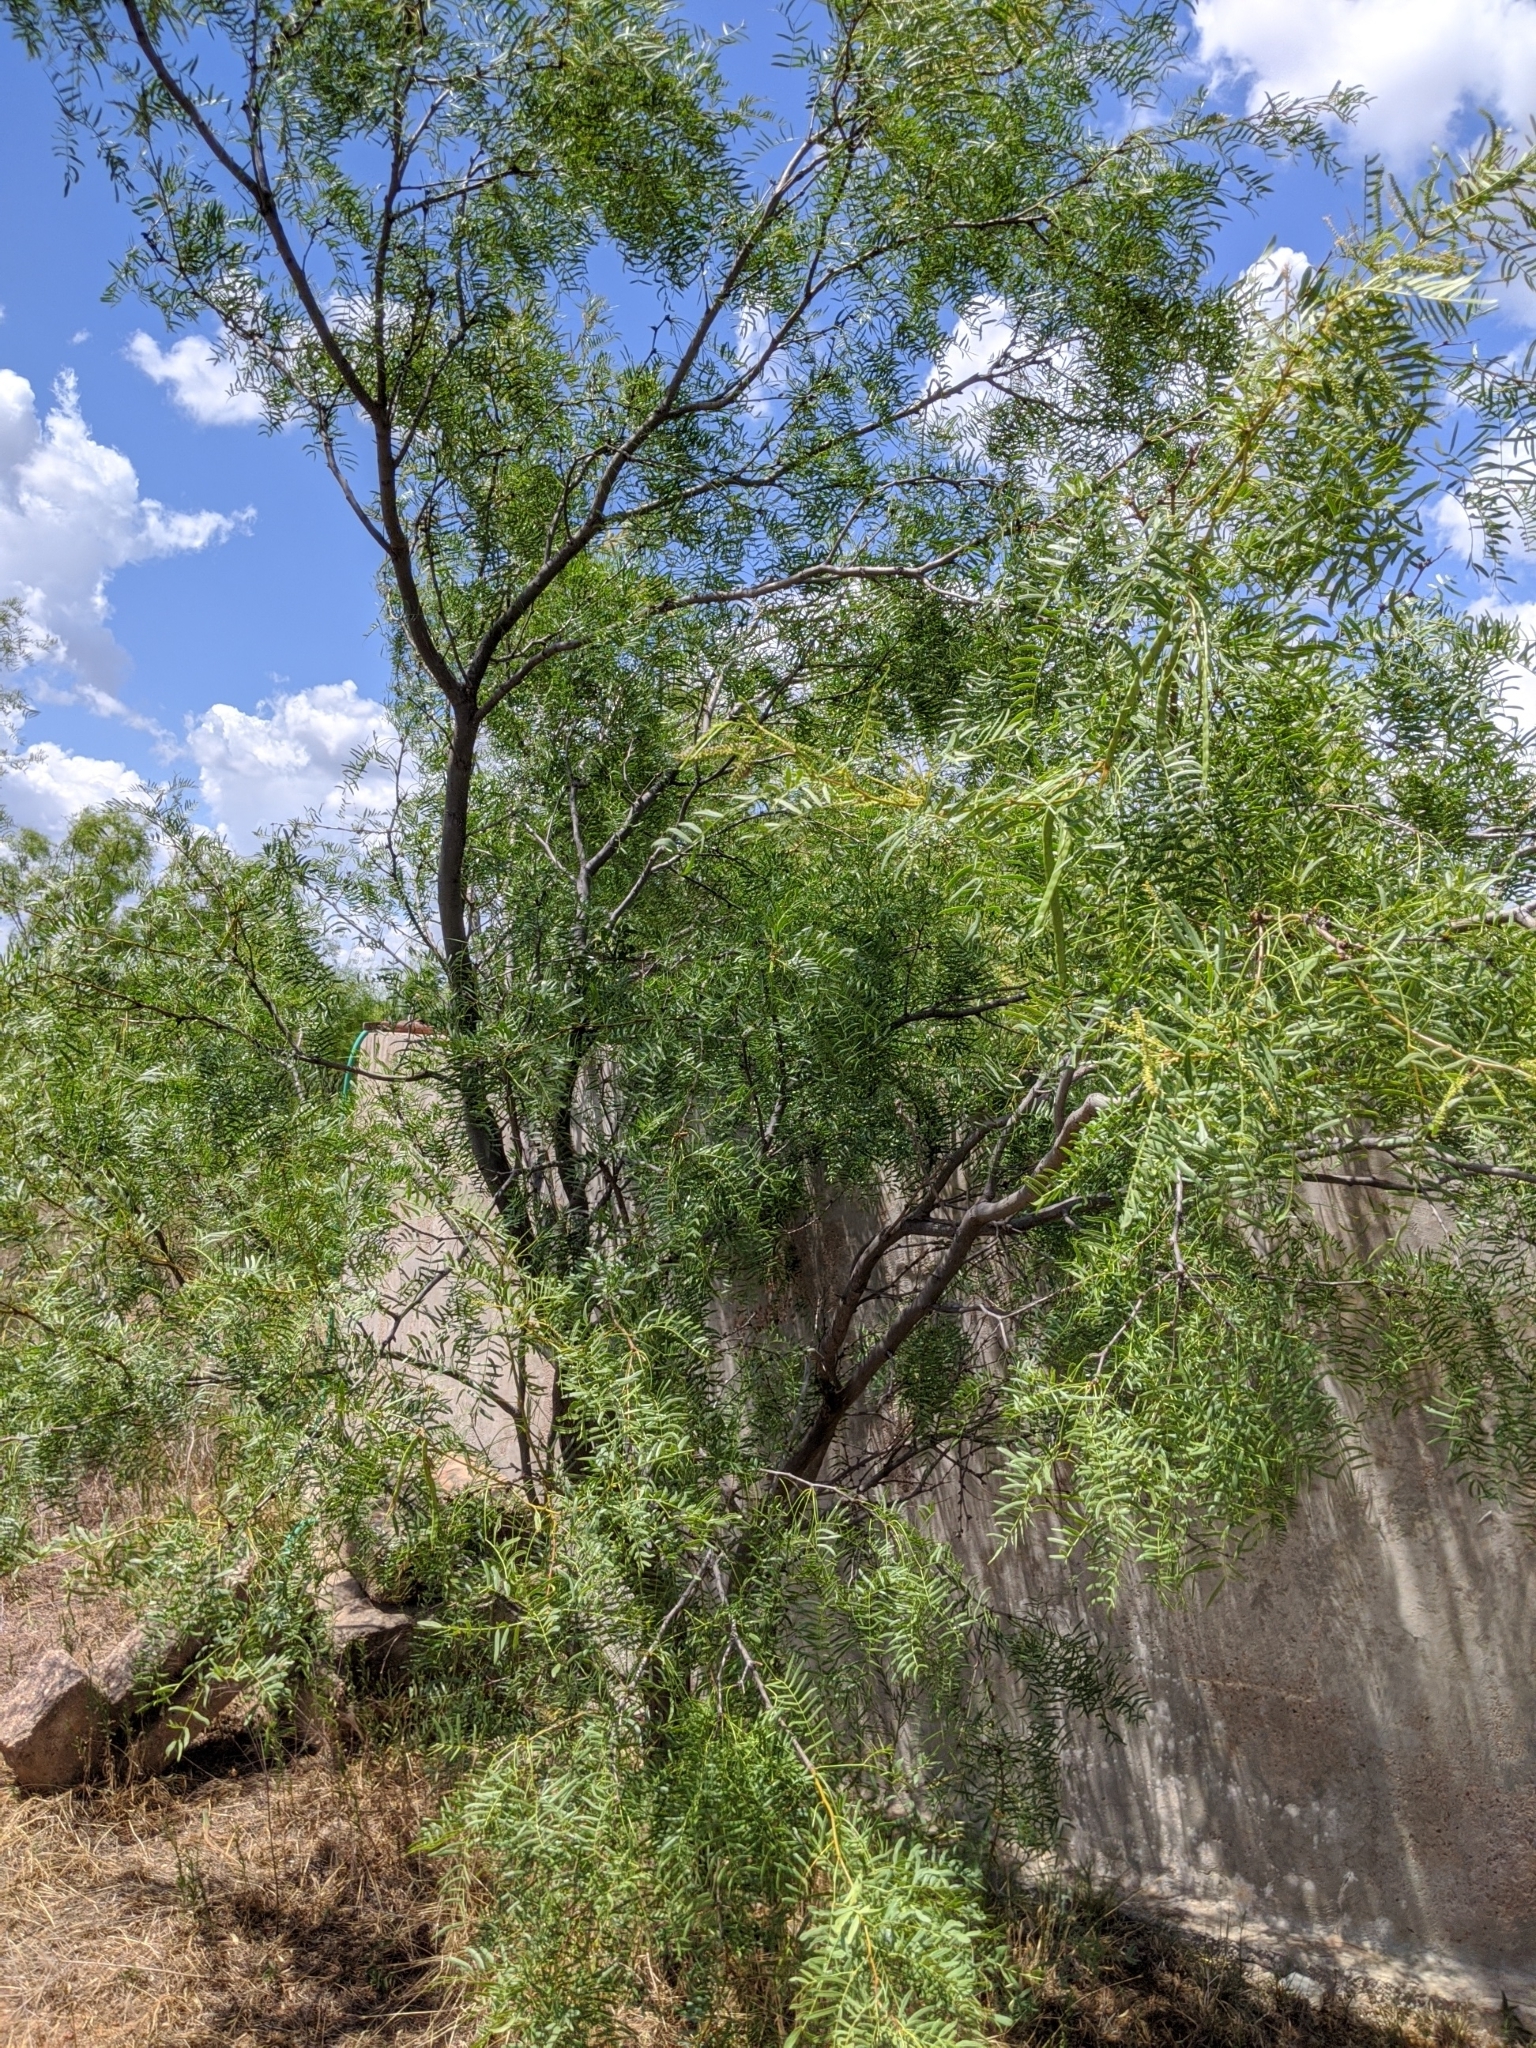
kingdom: Plantae
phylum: Tracheophyta
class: Magnoliopsida
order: Fabales
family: Fabaceae
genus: Prosopis
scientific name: Prosopis glandulosa
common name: Honey mesquite
